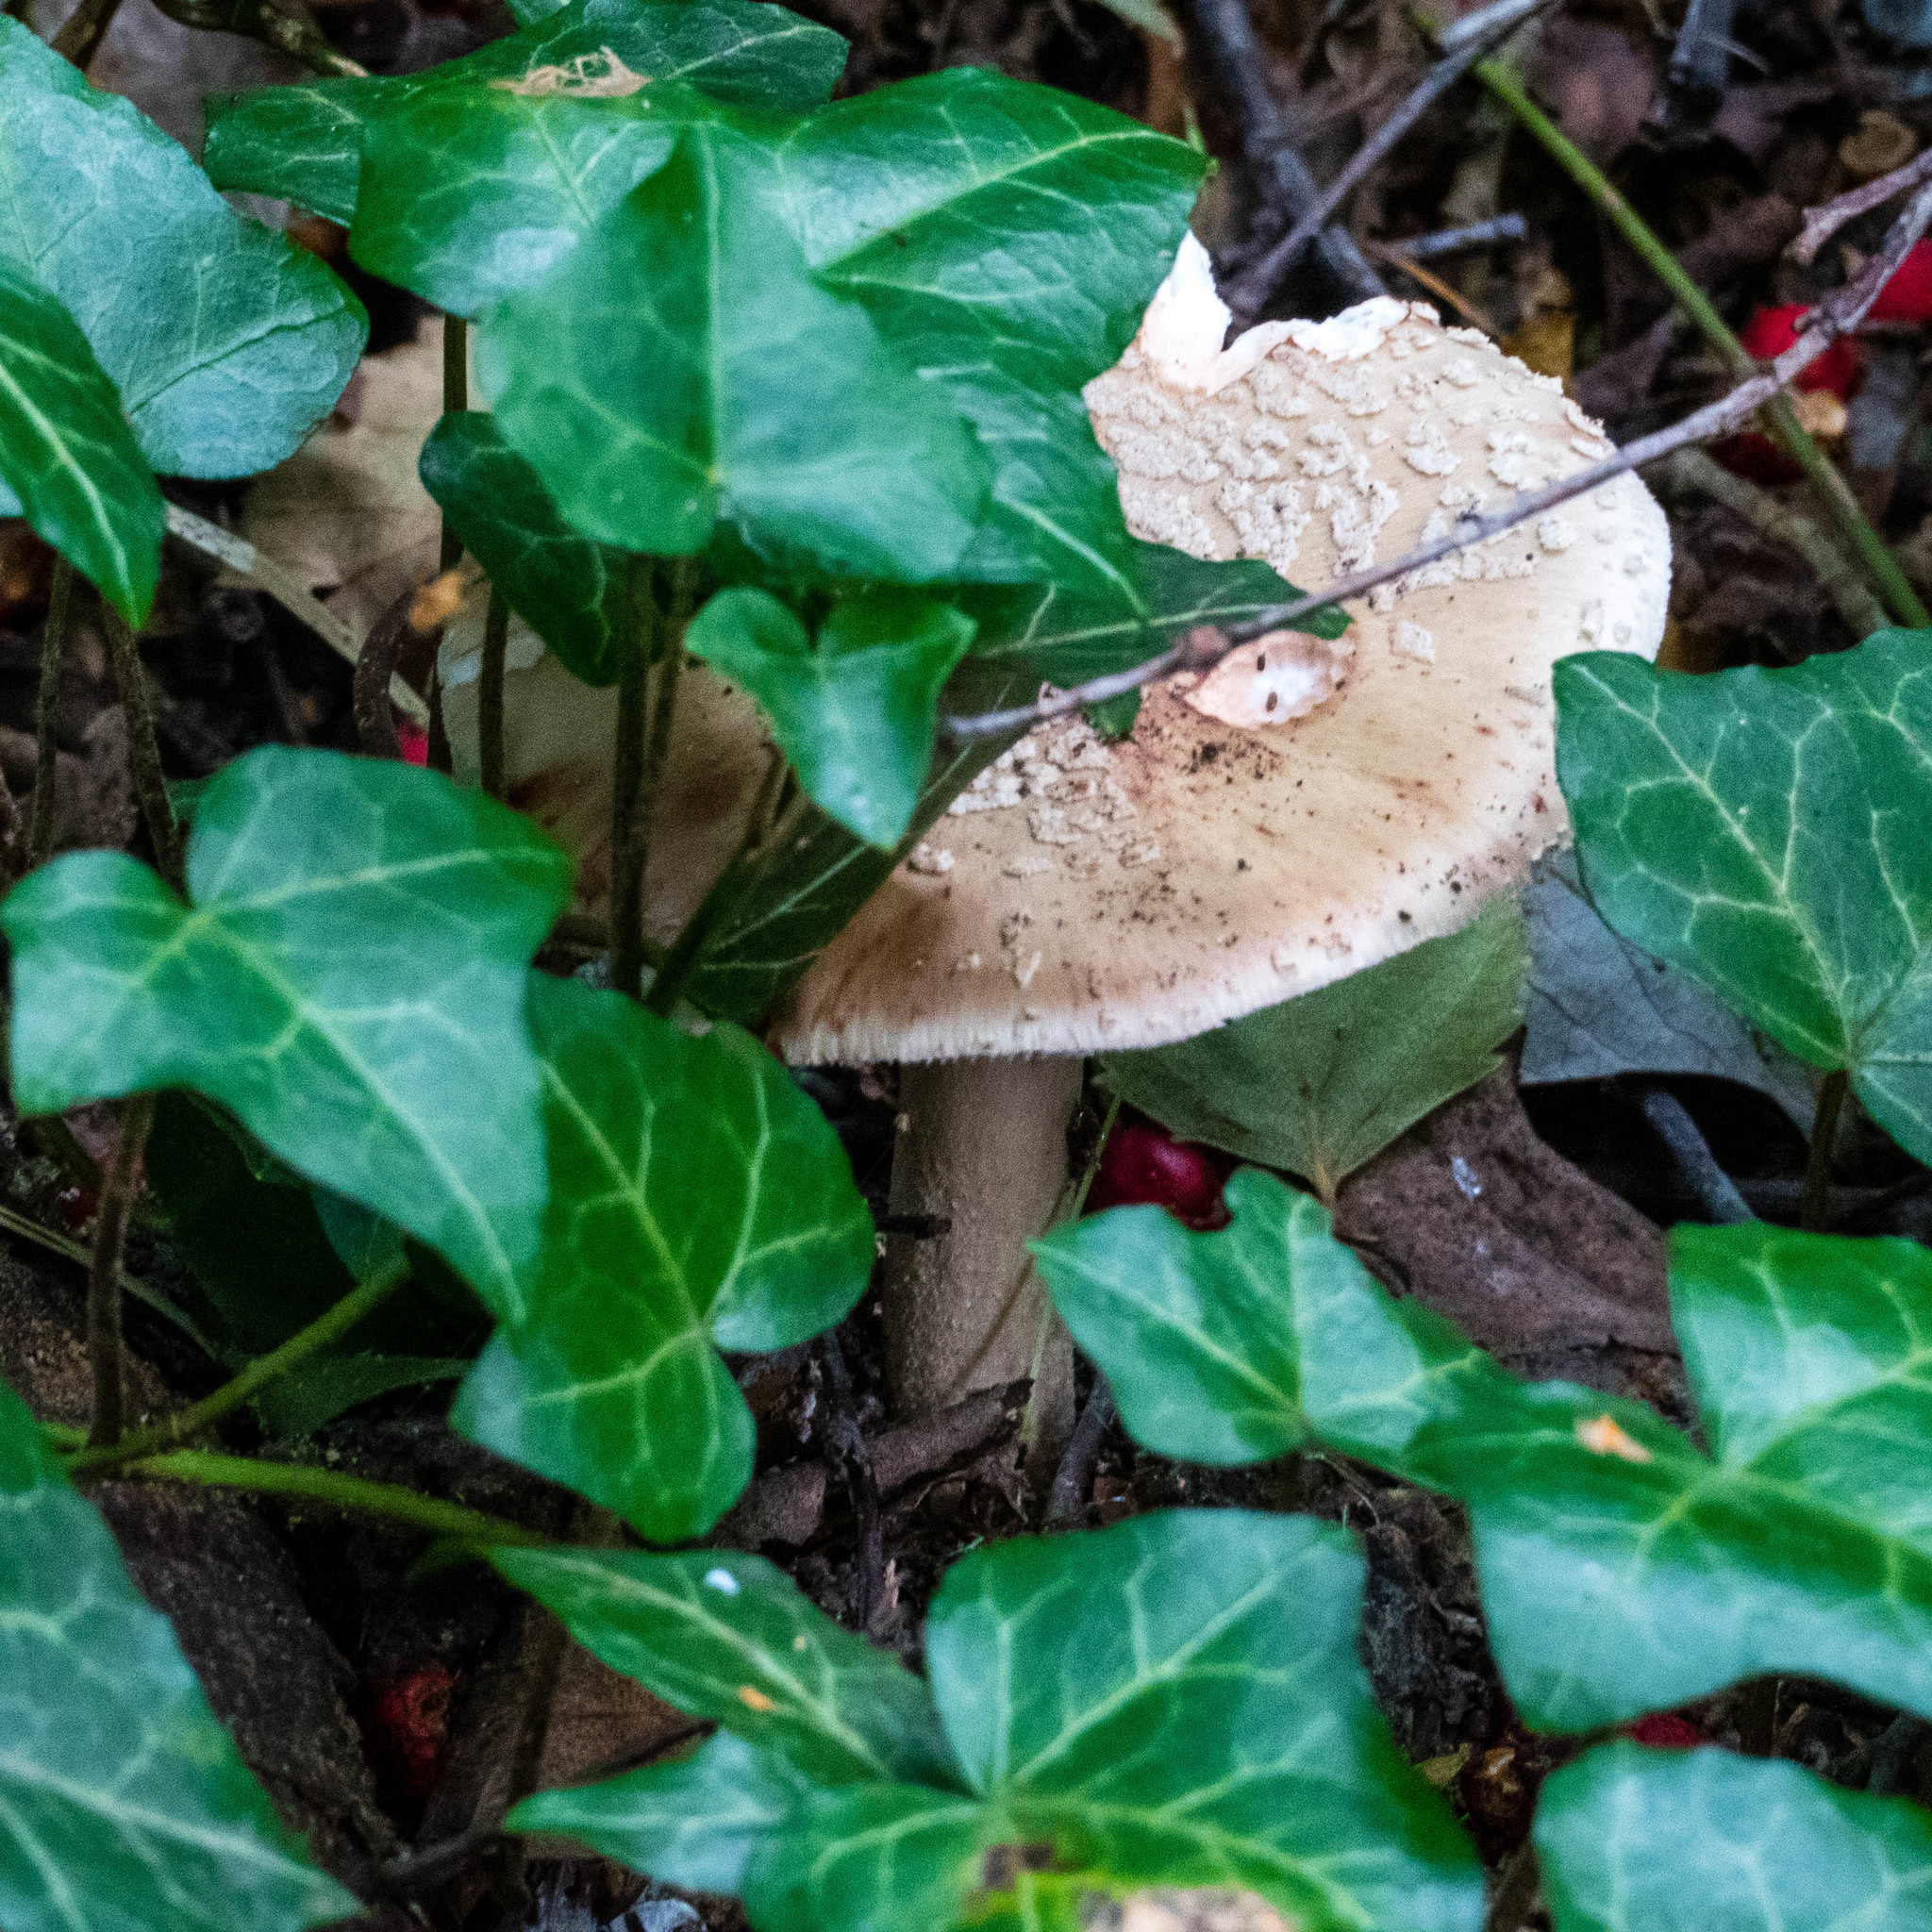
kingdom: Fungi
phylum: Basidiomycota
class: Agaricomycetes
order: Agaricales
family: Amanitaceae
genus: Amanita
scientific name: Amanita rubescens
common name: Blusher
